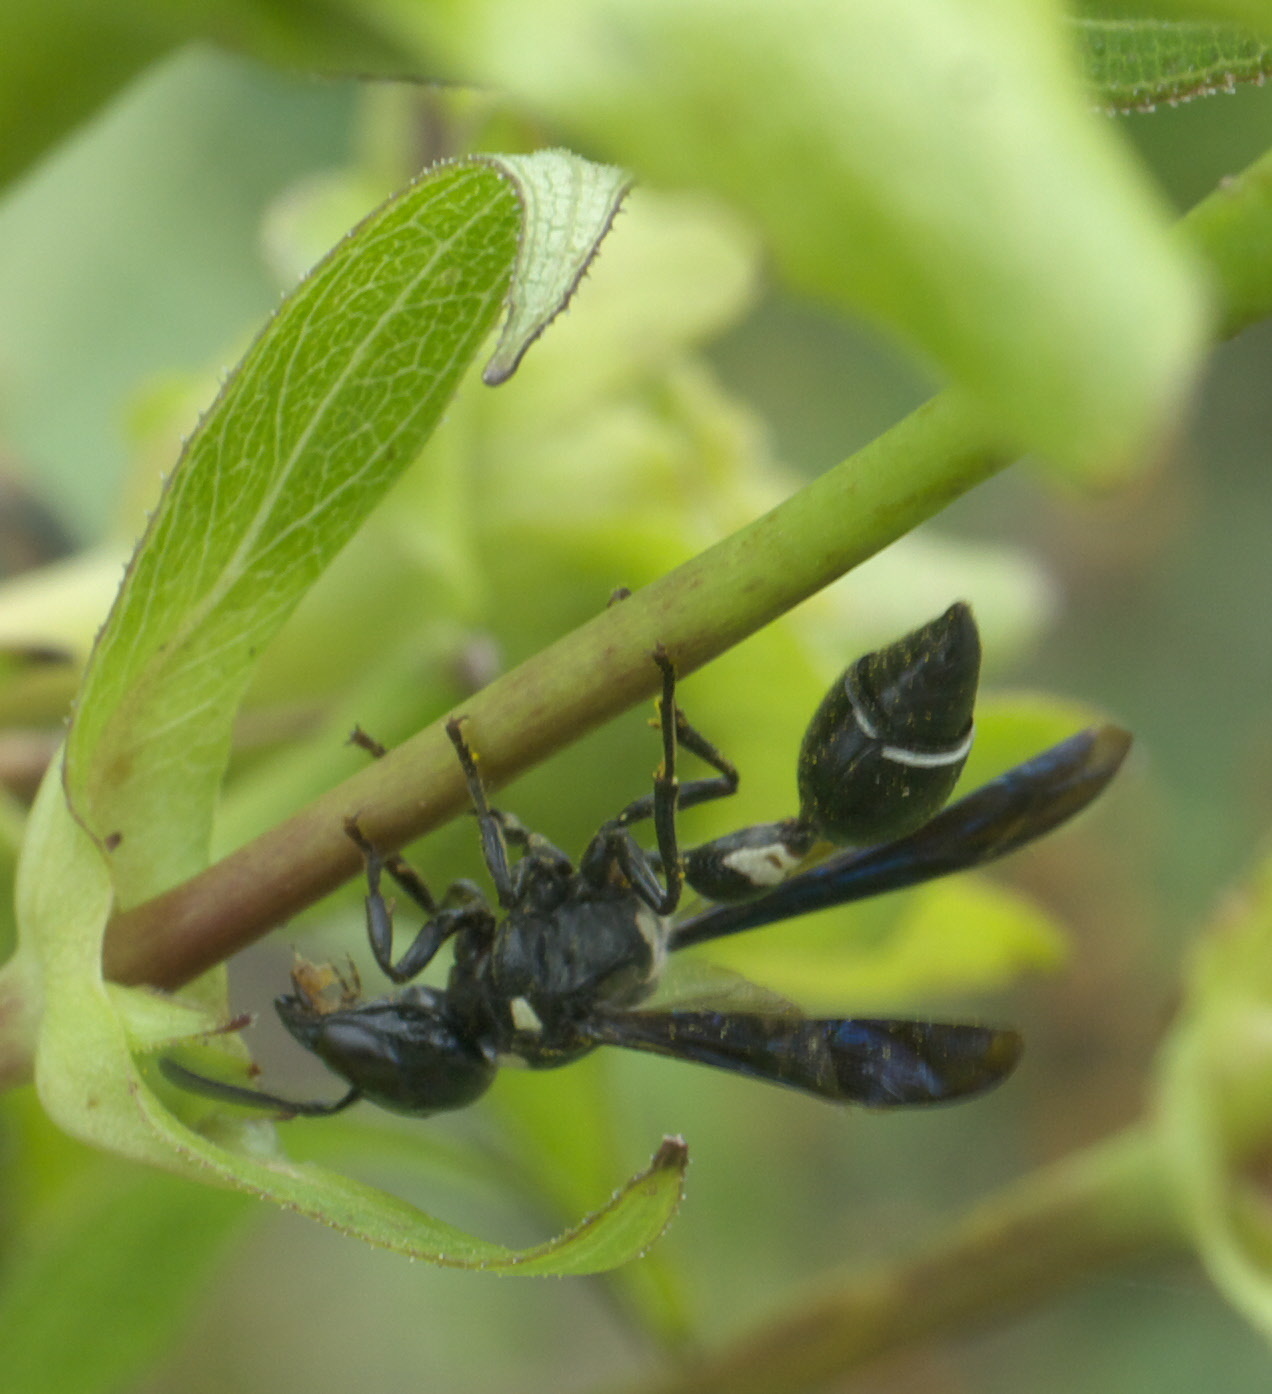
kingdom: Animalia
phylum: Arthropoda
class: Insecta
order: Hymenoptera
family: Eumenidae
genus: Zethus
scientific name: Zethus spinipes
